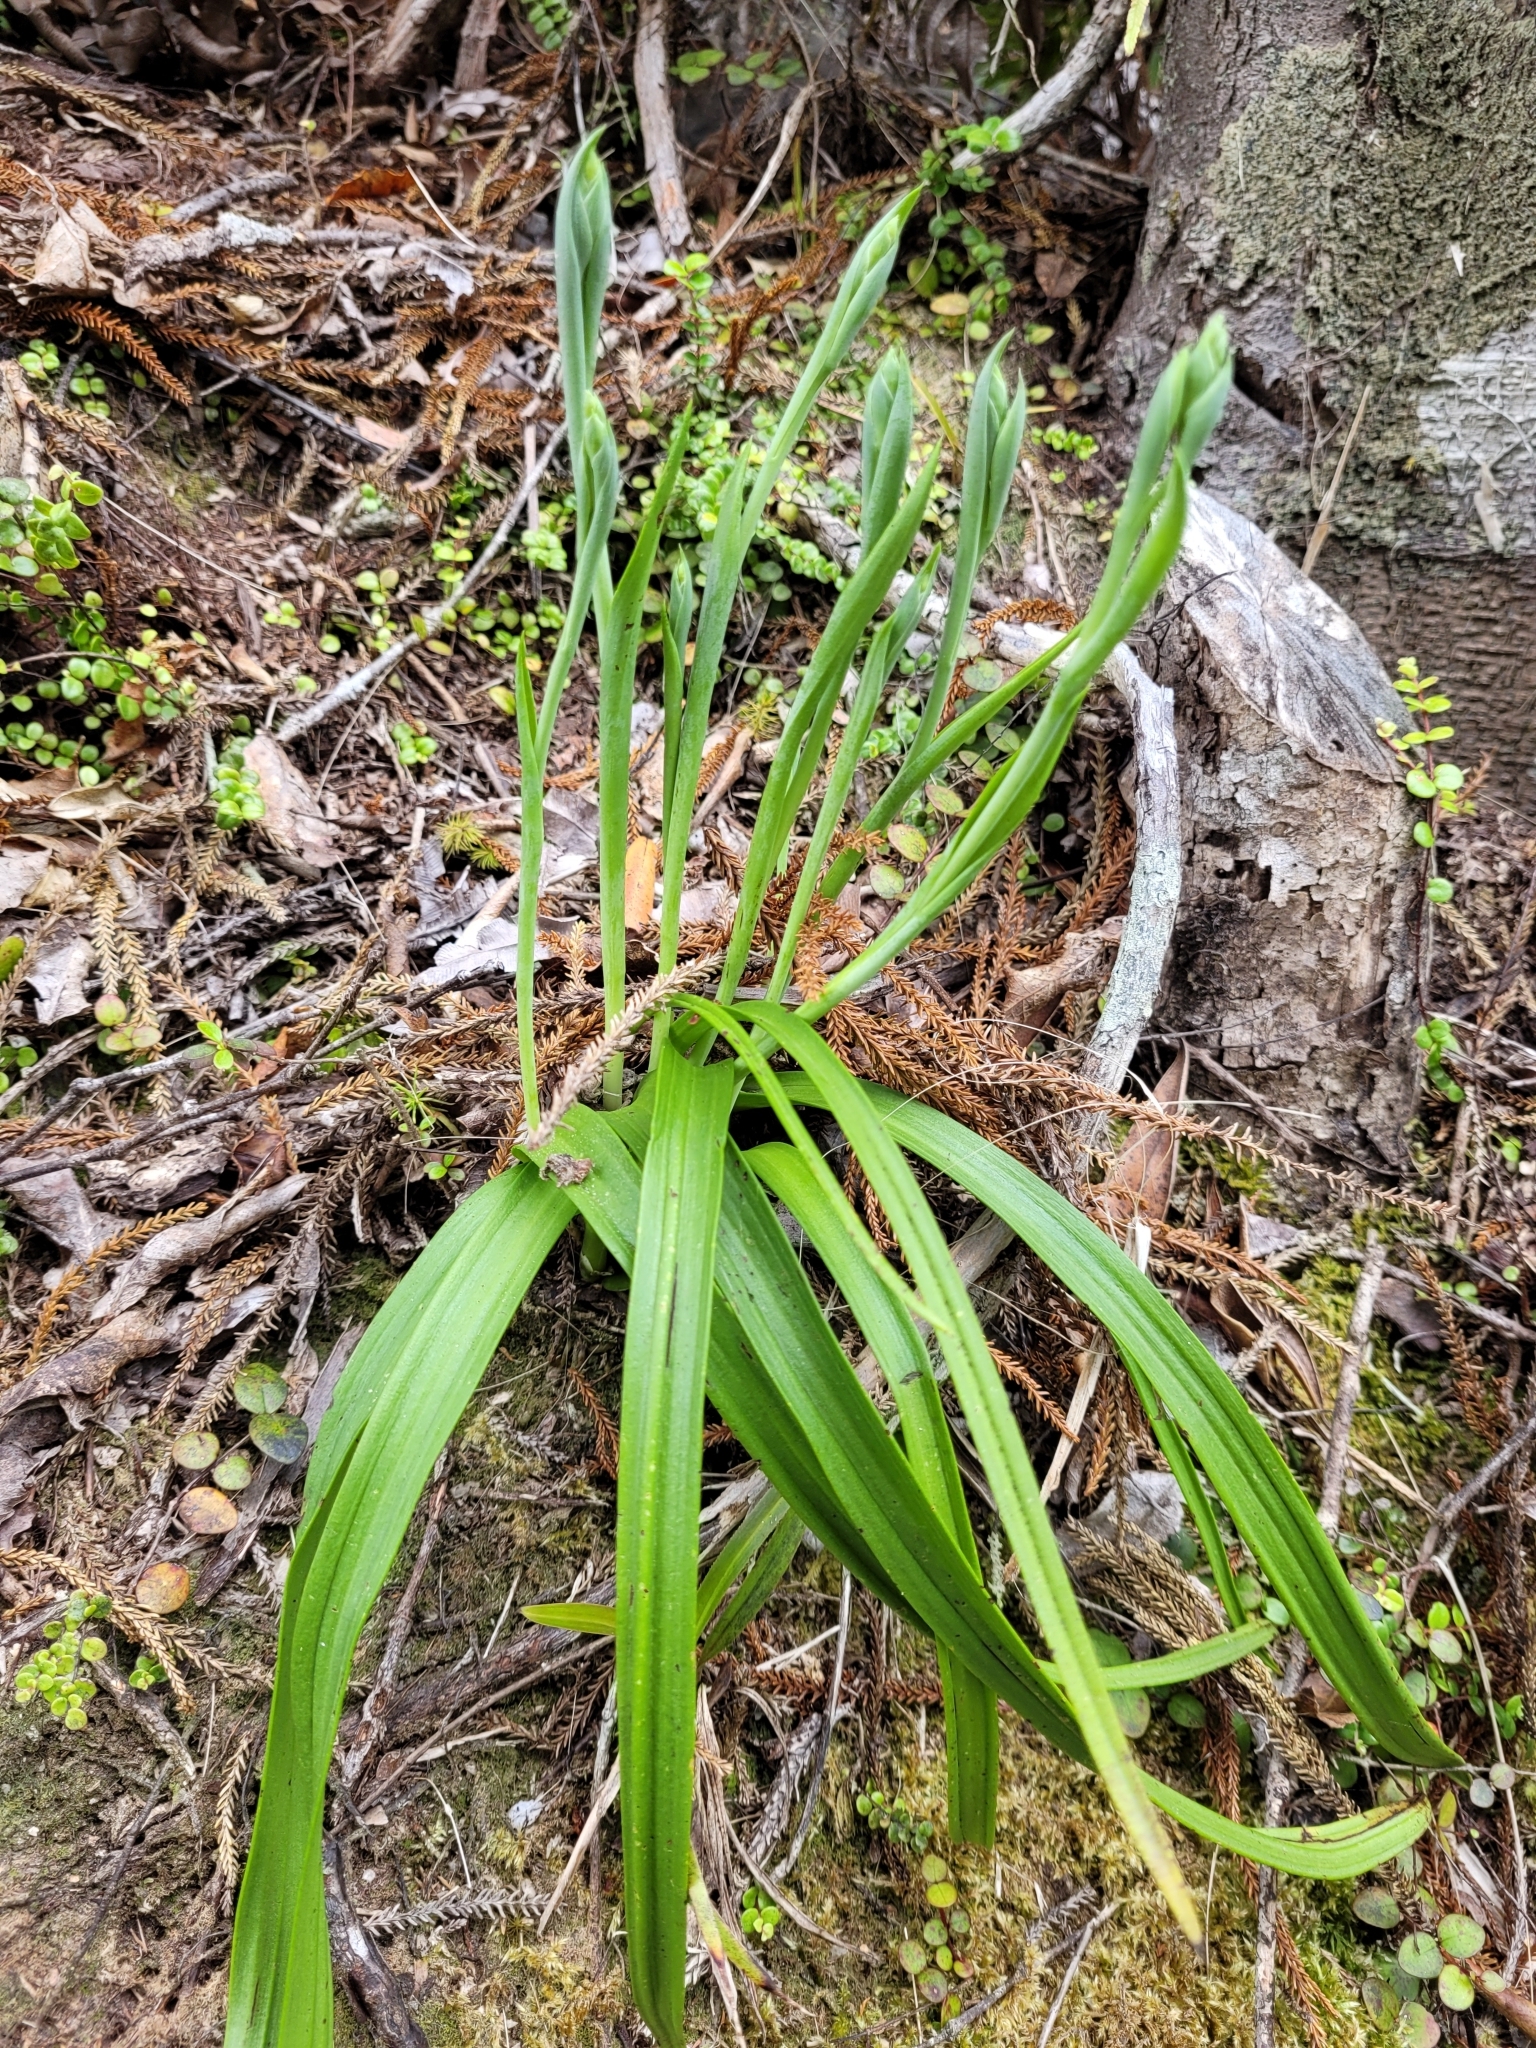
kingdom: Plantae
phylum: Tracheophyta
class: Liliopsida
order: Asparagales
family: Orchidaceae
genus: Thelymitra
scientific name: Thelymitra longifolia
